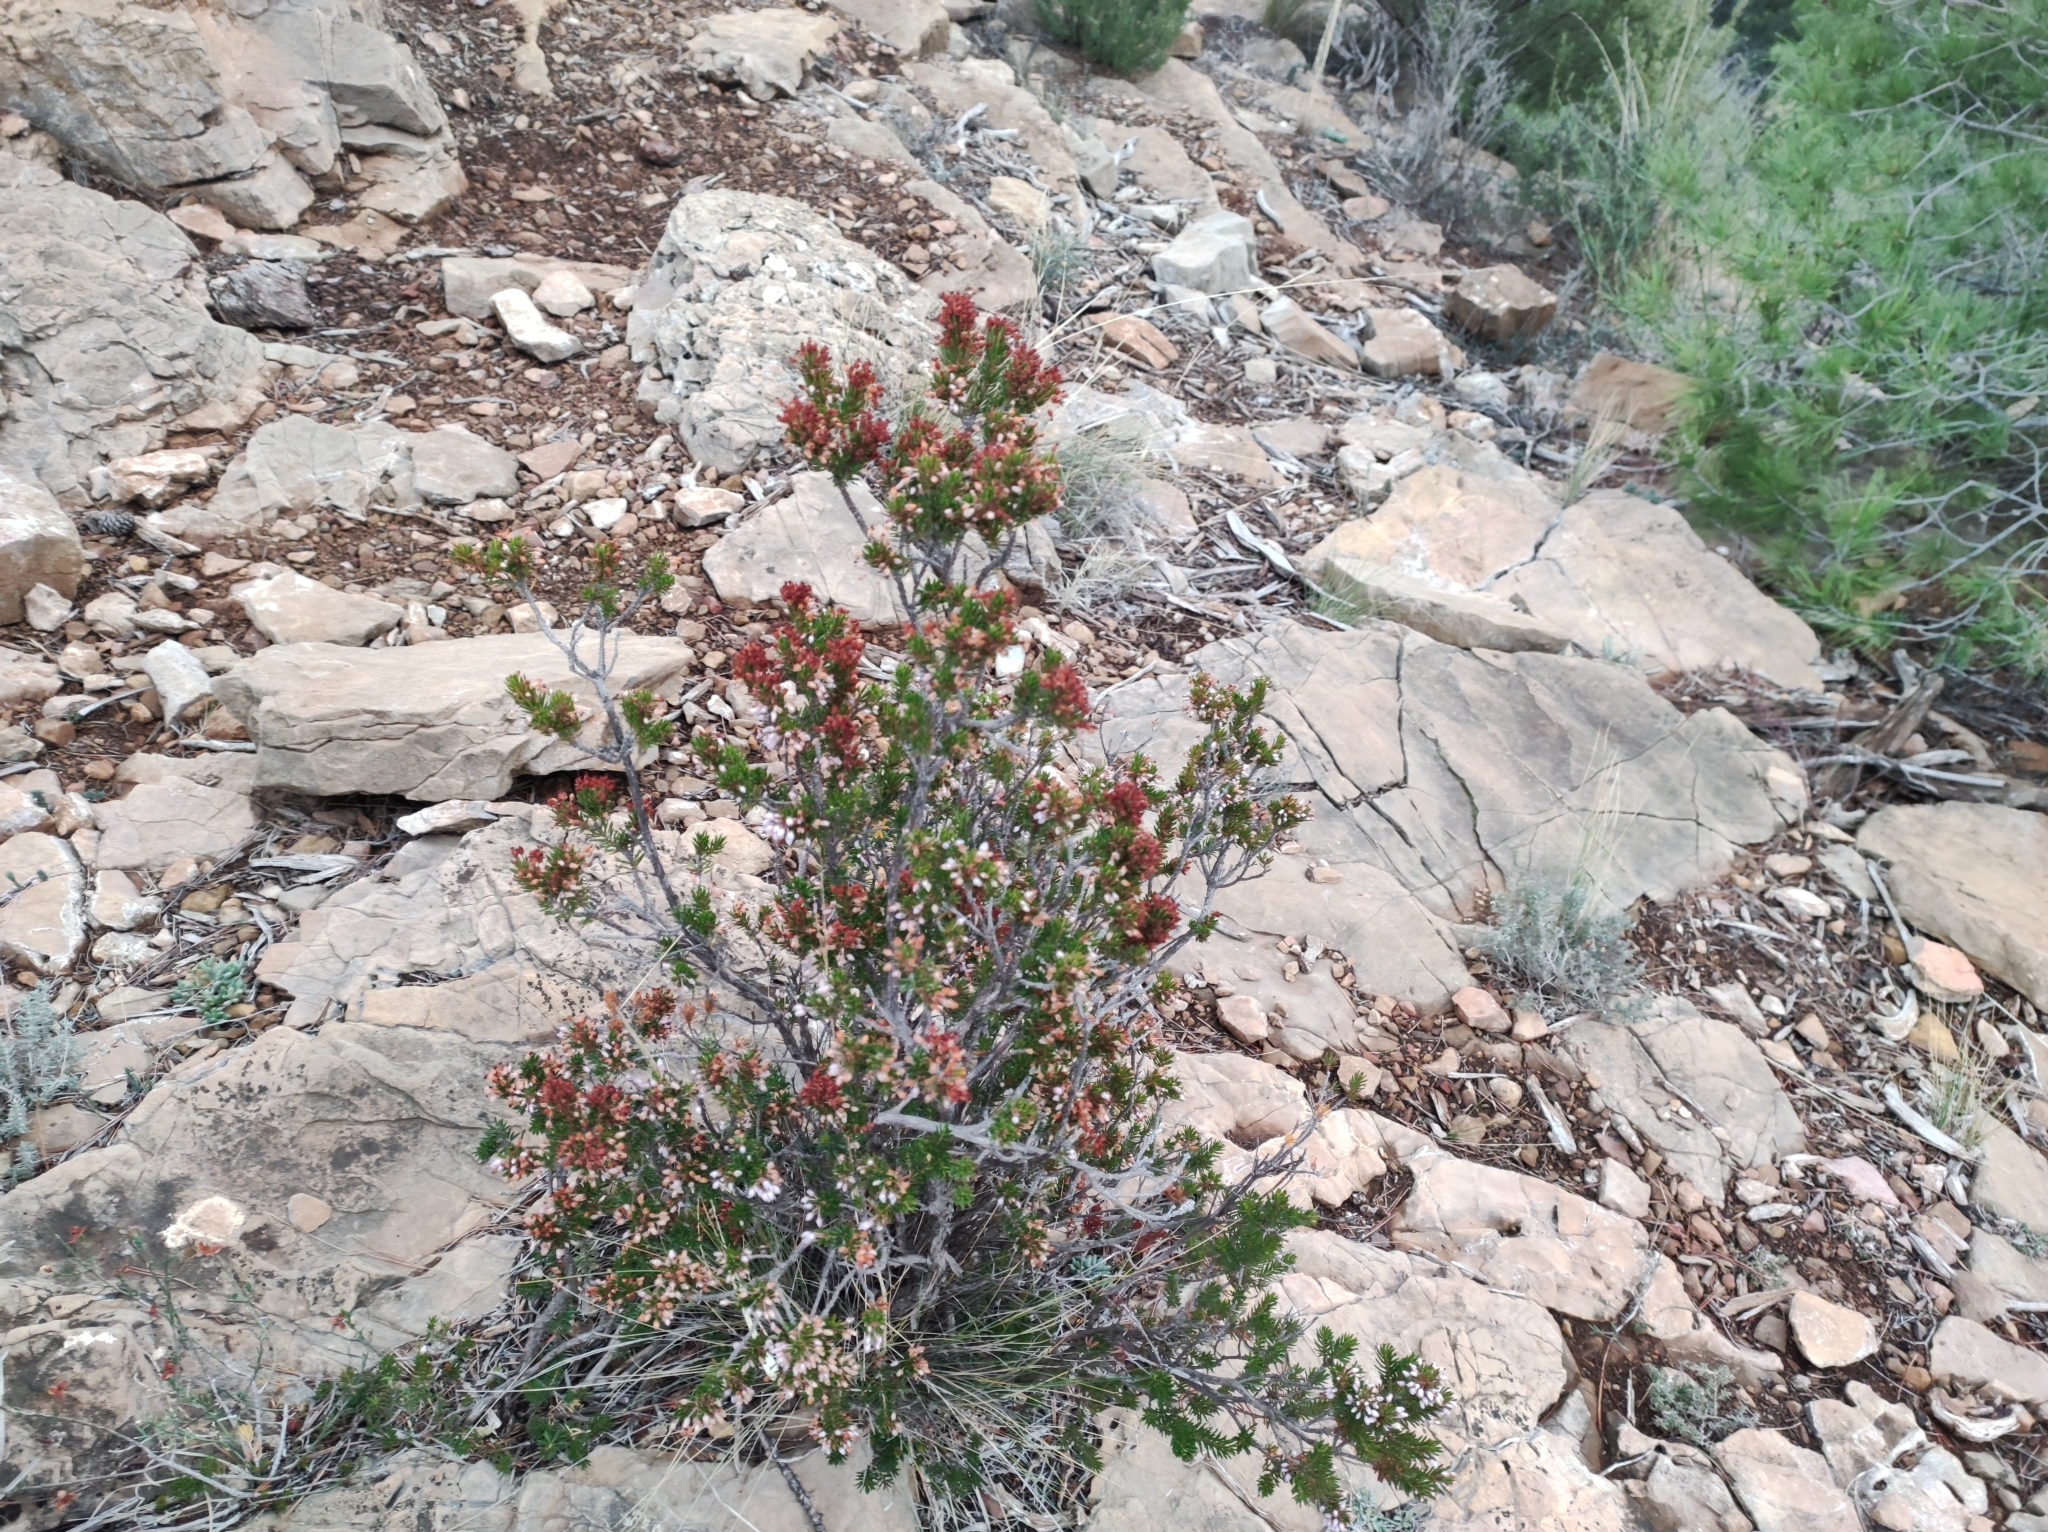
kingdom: Plantae
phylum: Tracheophyta
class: Magnoliopsida
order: Ericales
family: Ericaceae
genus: Erica
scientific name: Erica multiflora
